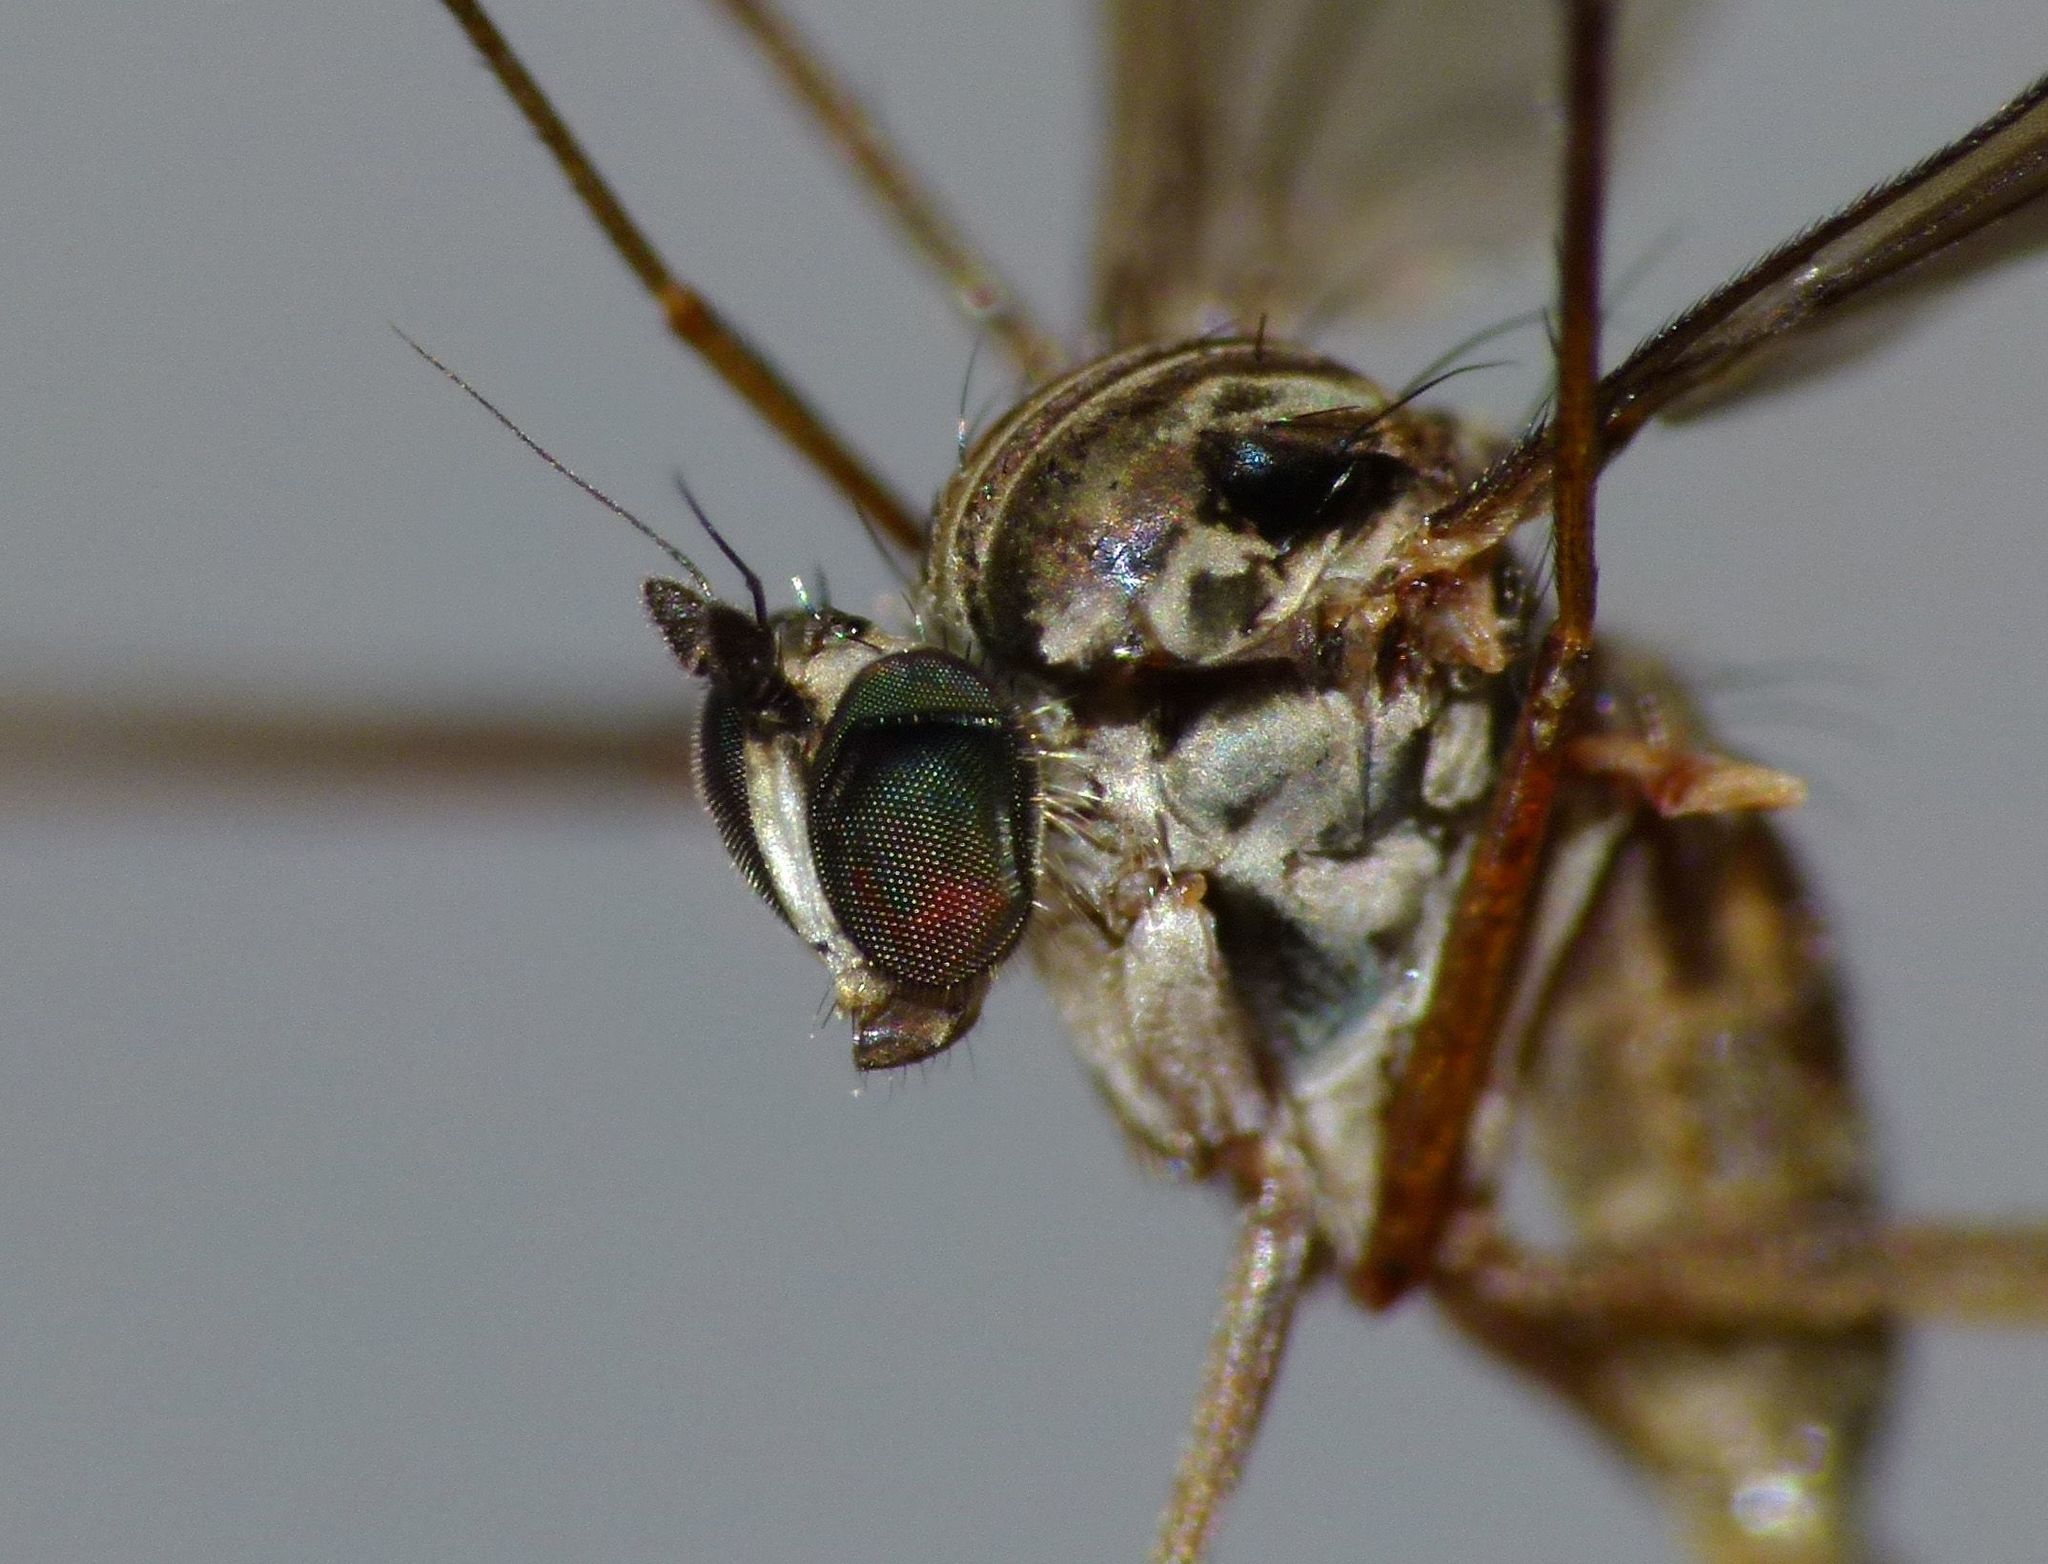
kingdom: Animalia
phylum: Arthropoda
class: Insecta
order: Diptera
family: Dolichopodidae
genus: Sympycnus
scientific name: Sympycnus longipilus
